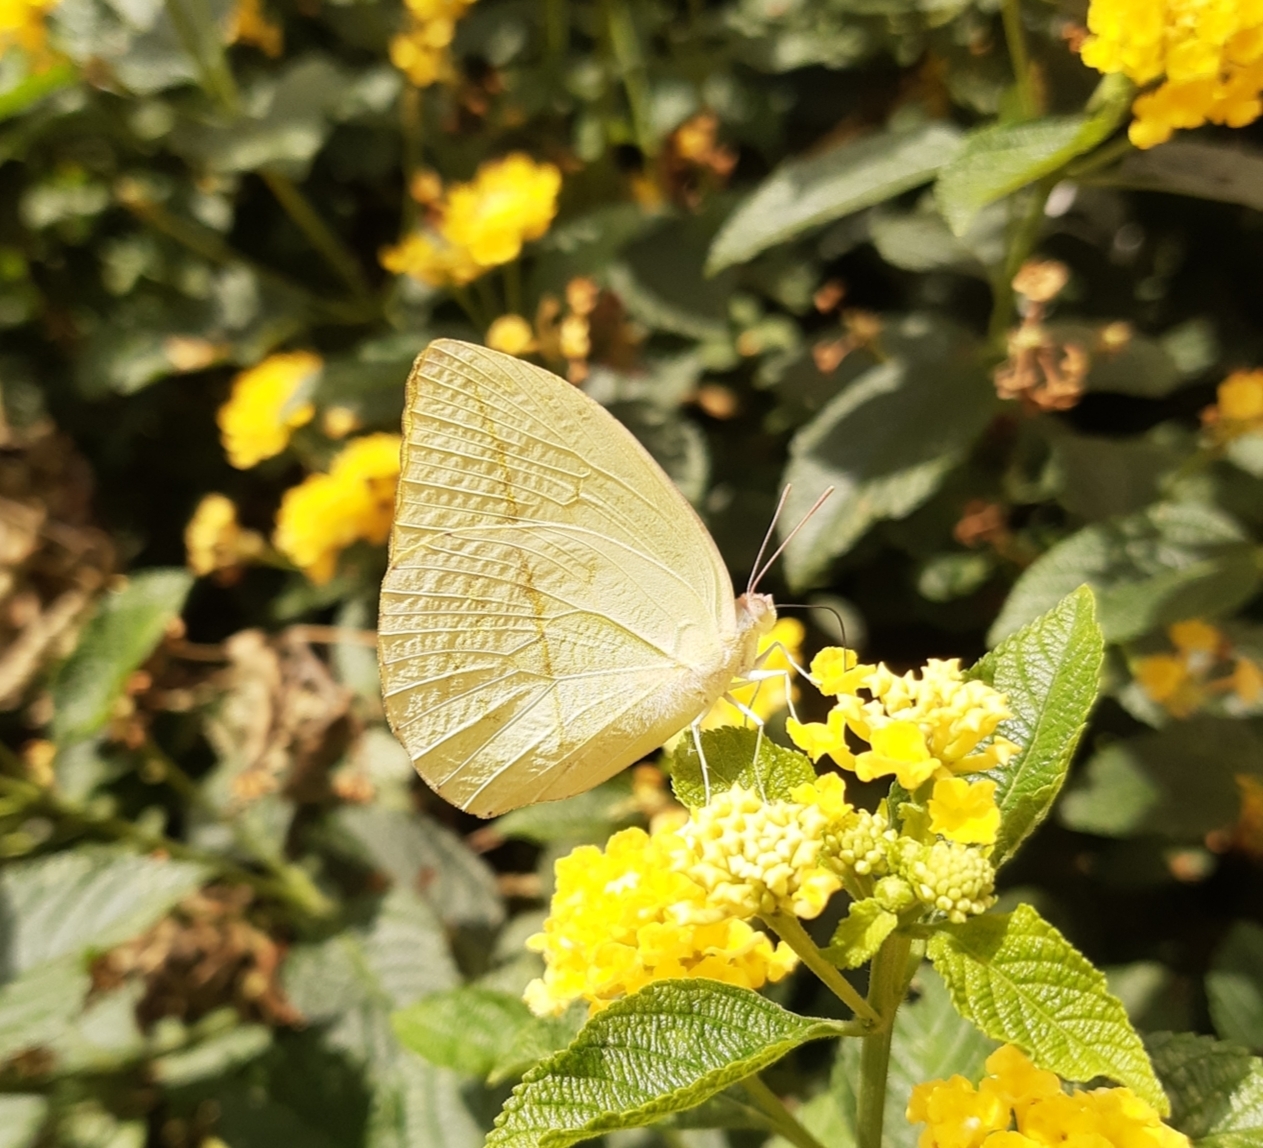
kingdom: Animalia
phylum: Arthropoda
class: Insecta
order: Lepidoptera
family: Pieridae
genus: Rhabdodryas
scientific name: Rhabdodryas trite
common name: Straight-lined sulphur
